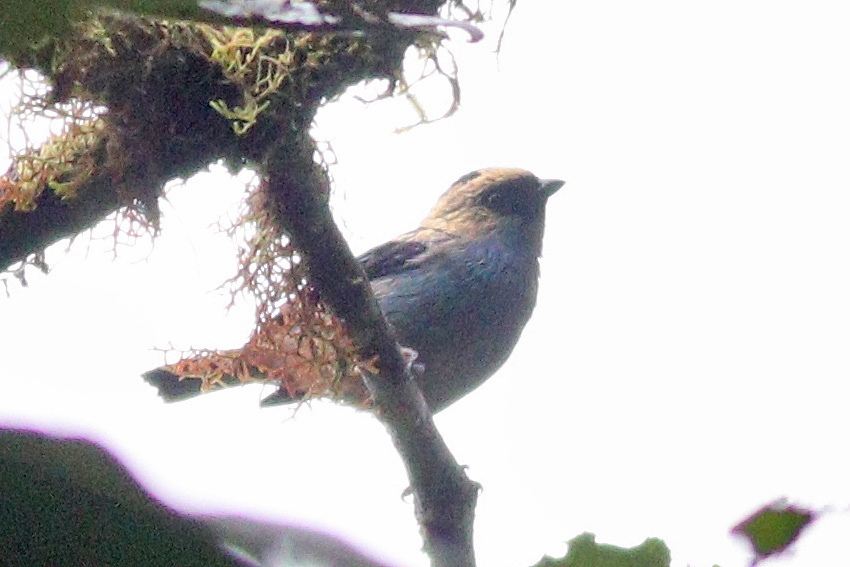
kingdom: Animalia
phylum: Chordata
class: Aves
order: Passeriformes
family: Thraupidae
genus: Tangara
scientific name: Tangara labradorides
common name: Metallic-green tanager
